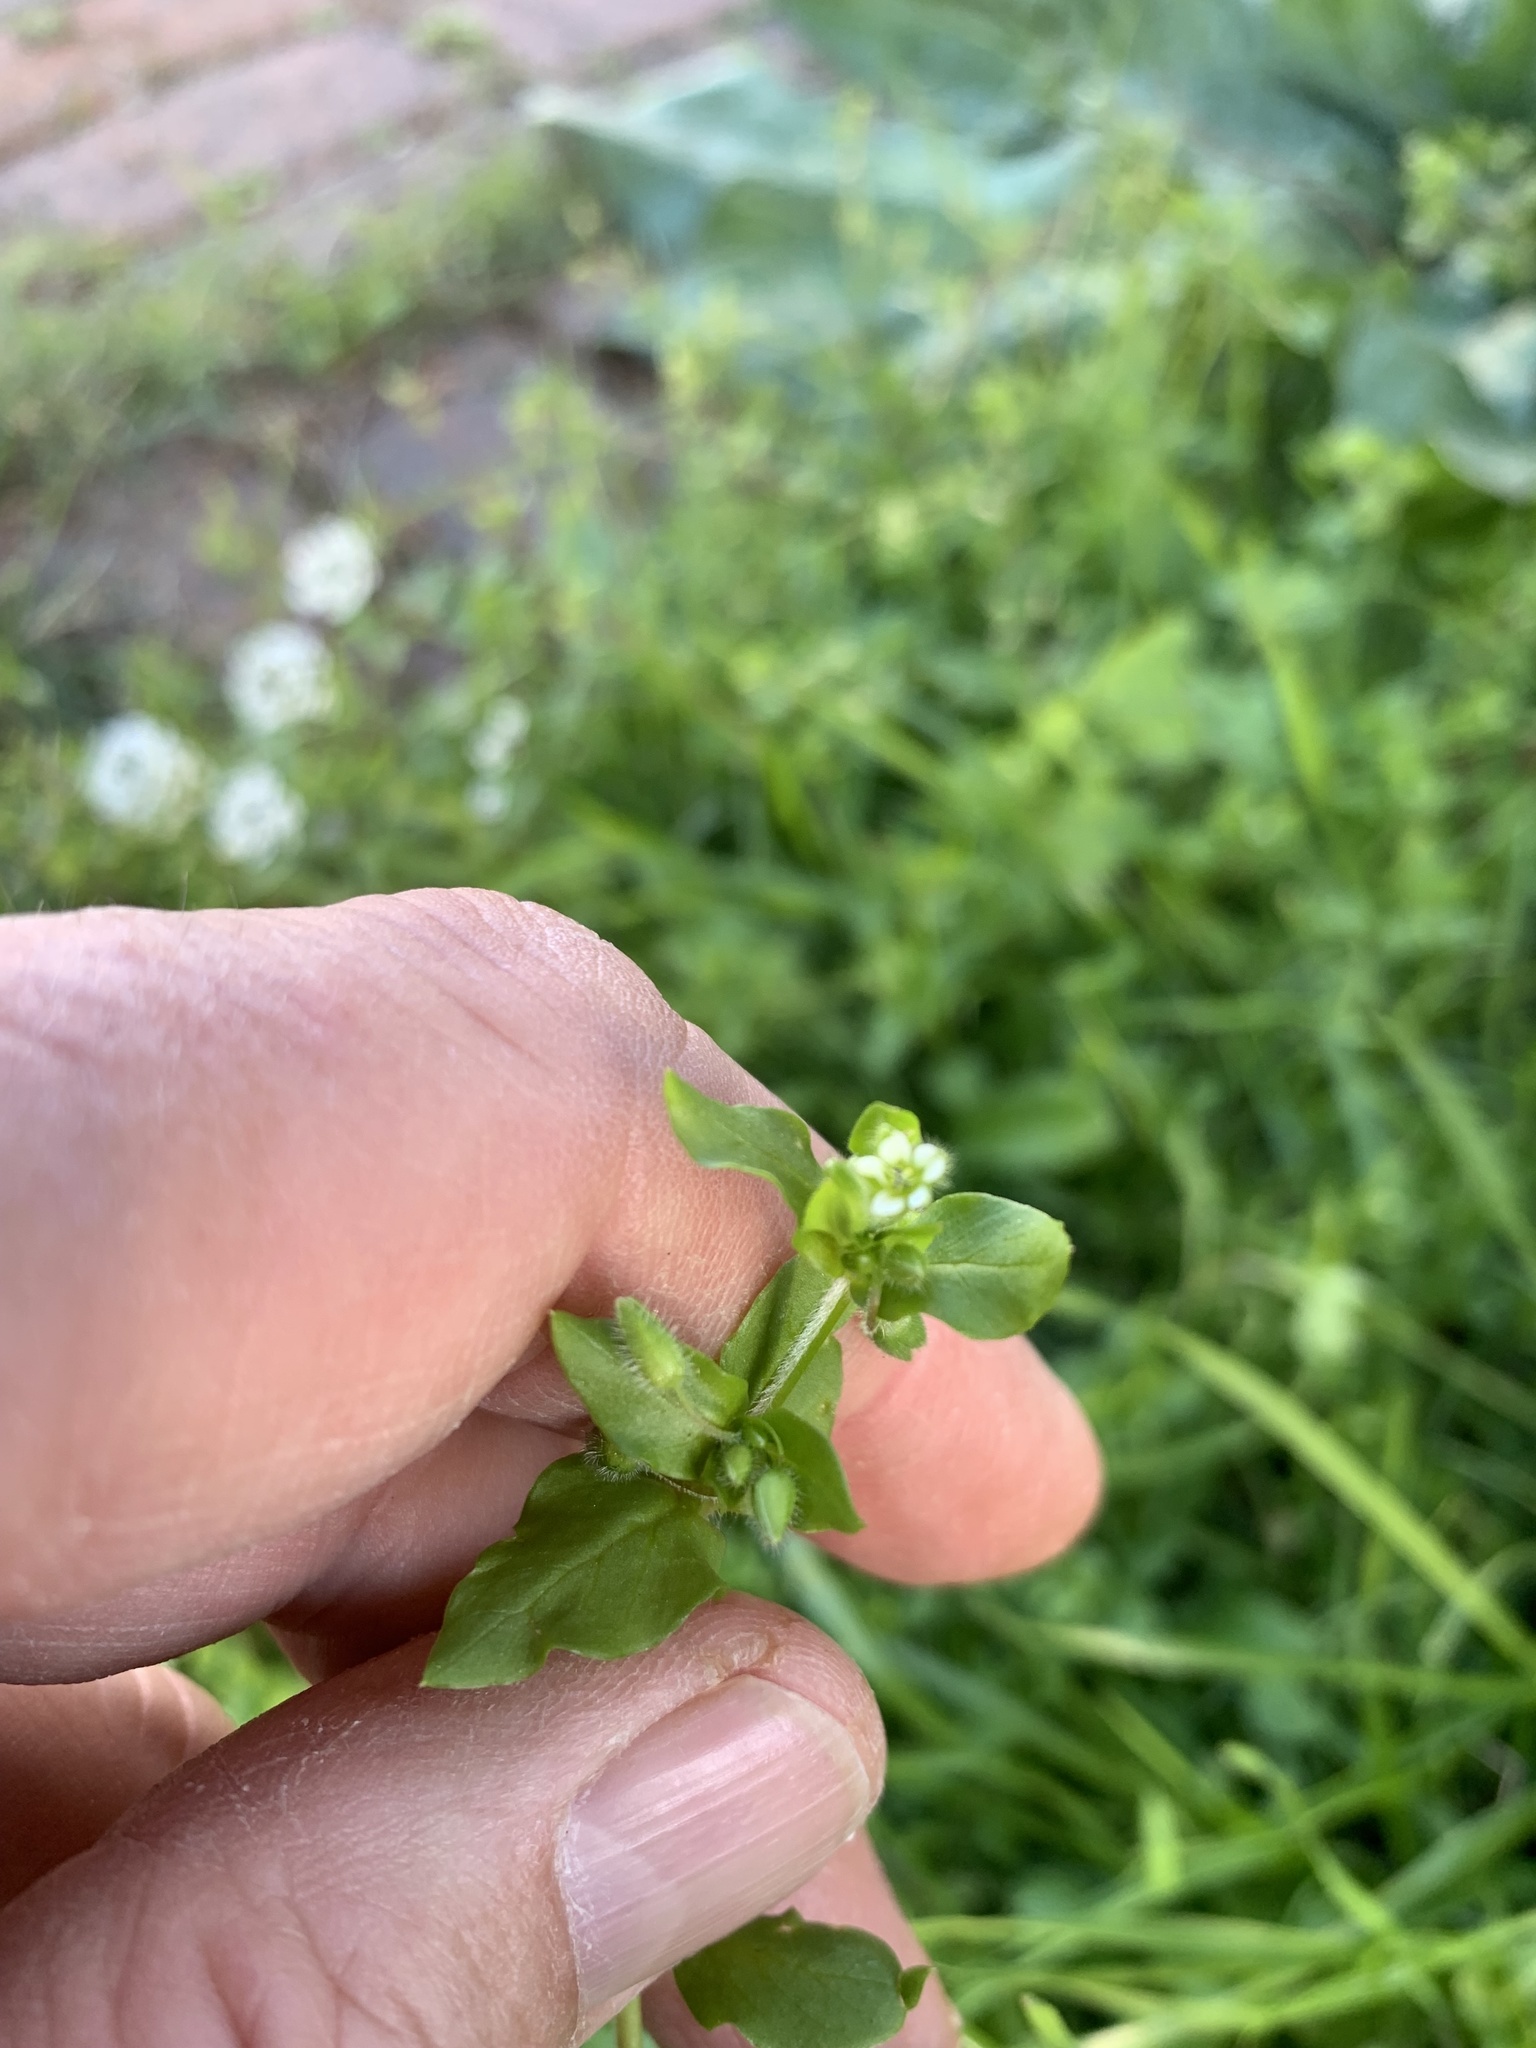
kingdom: Plantae
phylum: Tracheophyta
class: Magnoliopsida
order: Caryophyllales
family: Caryophyllaceae
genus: Stellaria
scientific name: Stellaria media
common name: Common chickweed
